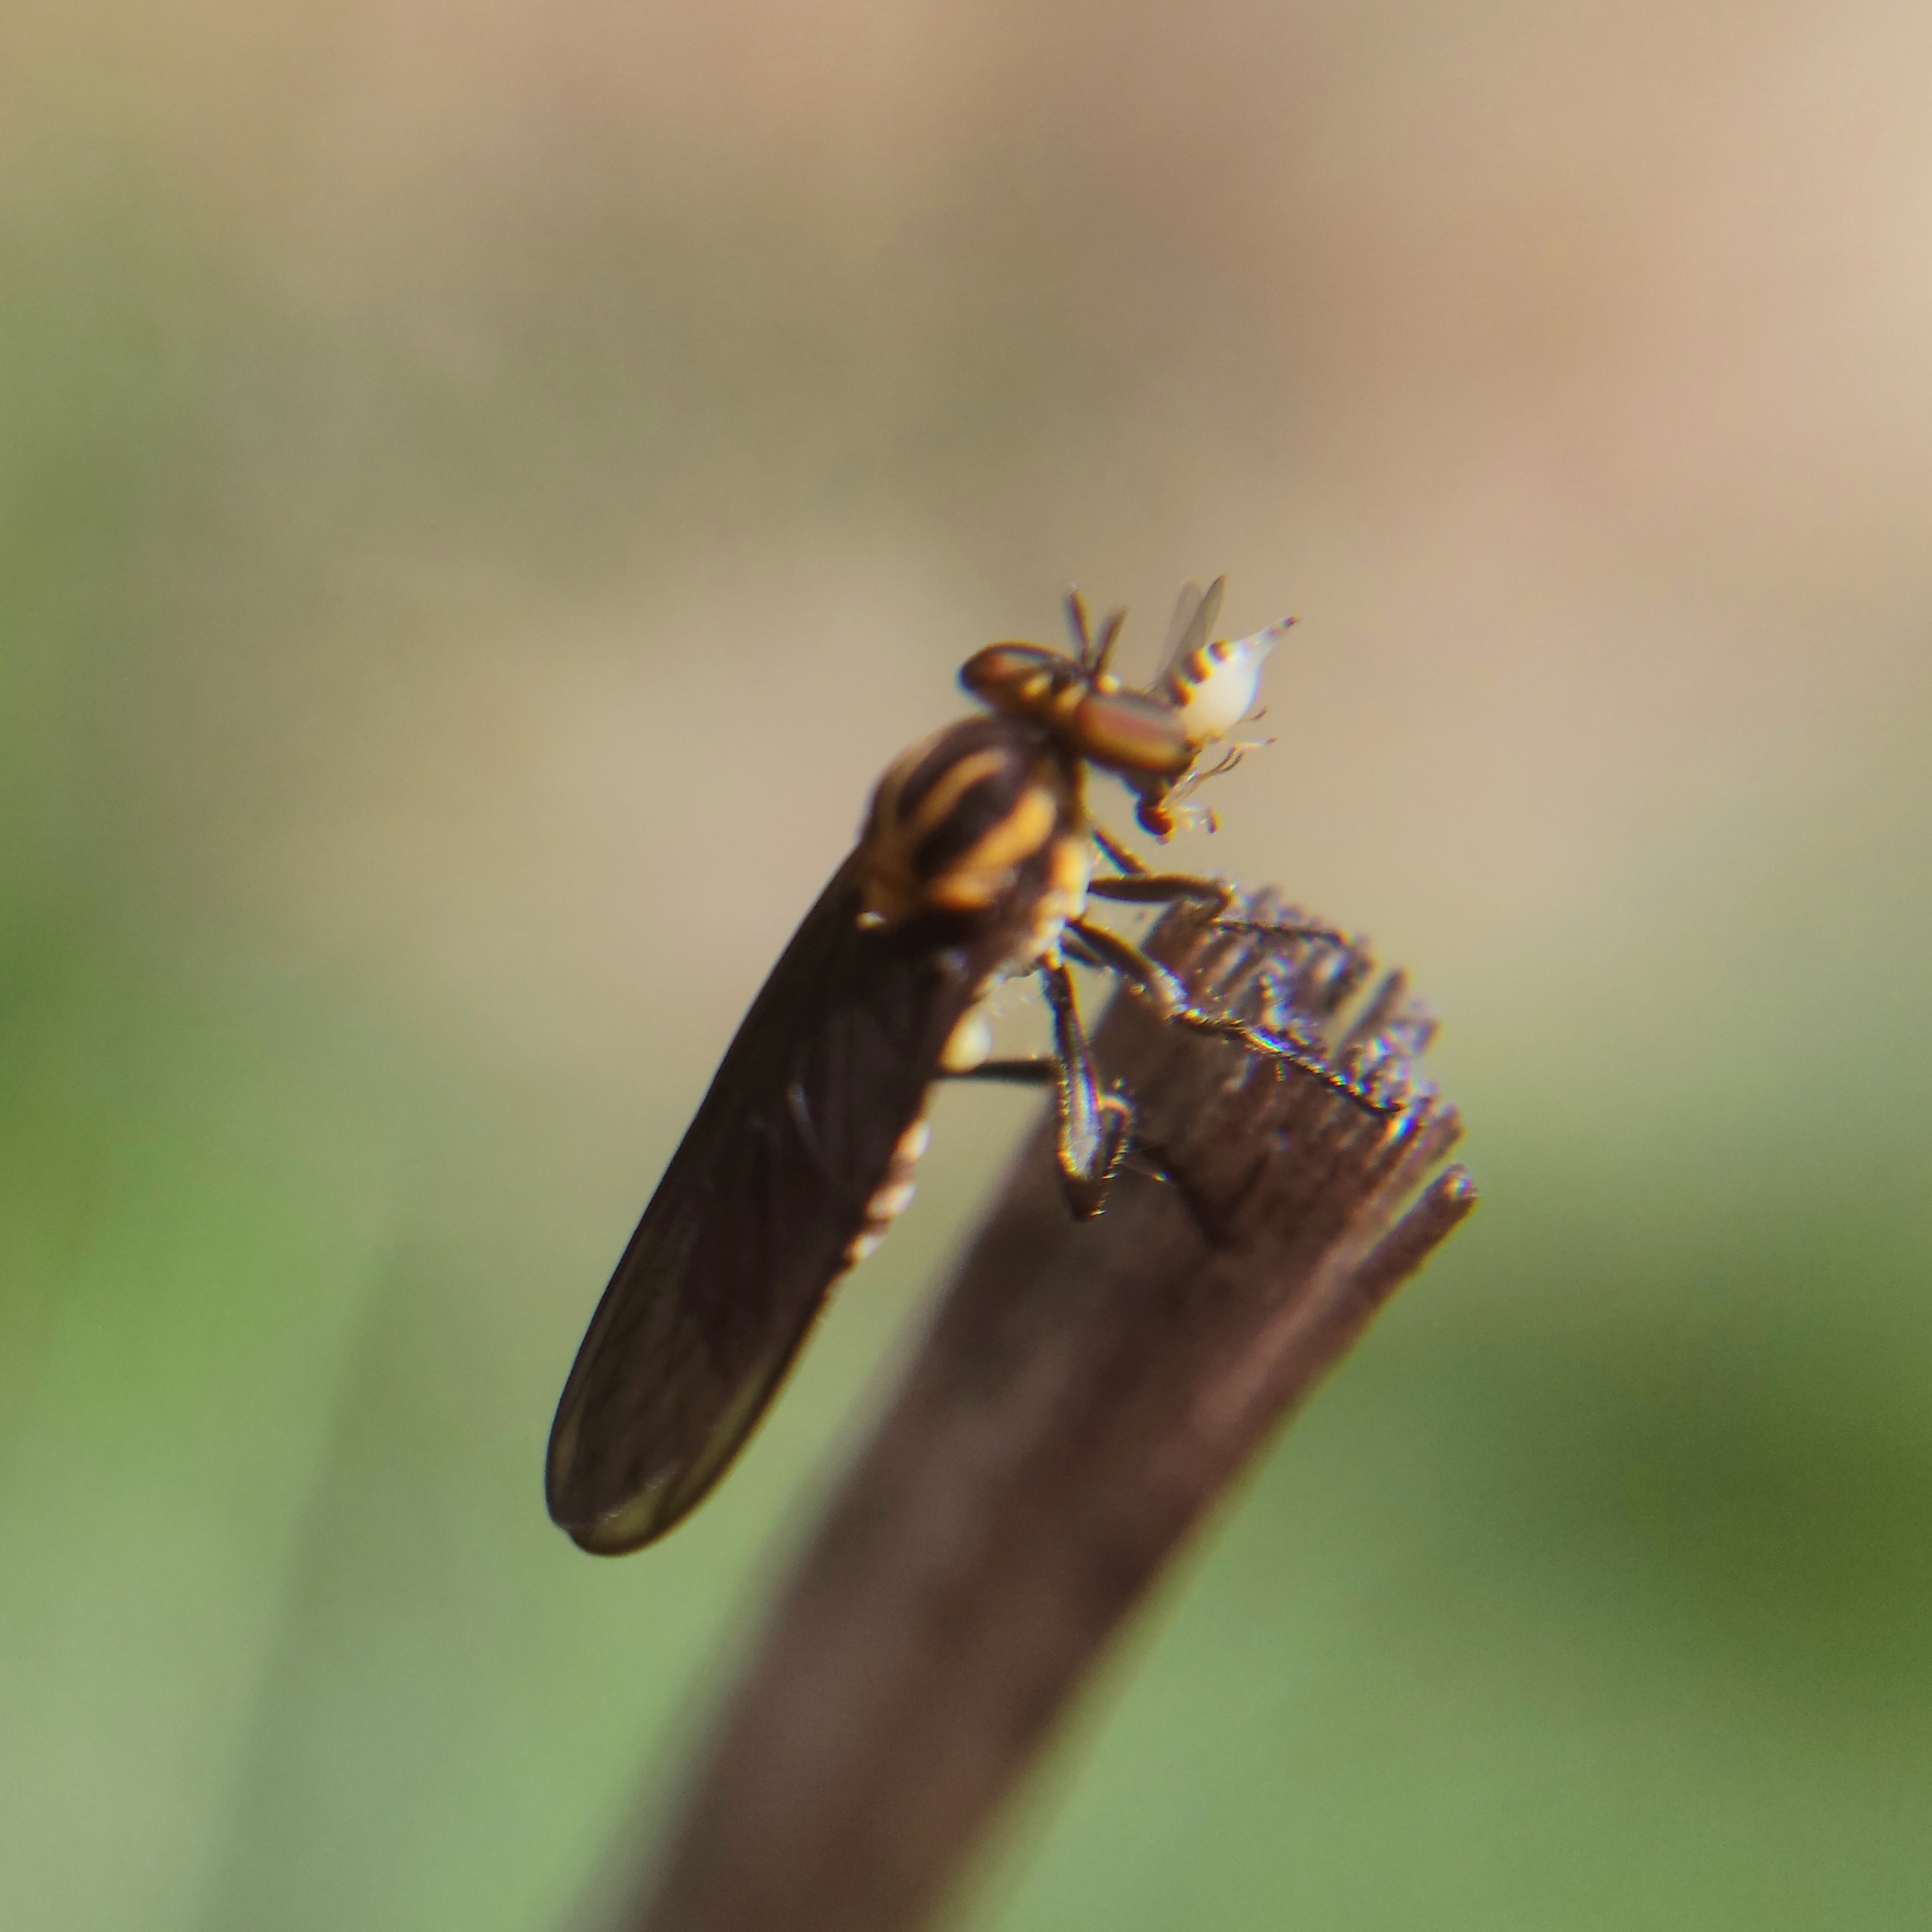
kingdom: Animalia
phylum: Arthropoda
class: Insecta
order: Diptera
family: Asilidae
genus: Holcocephala
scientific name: Holcocephala
